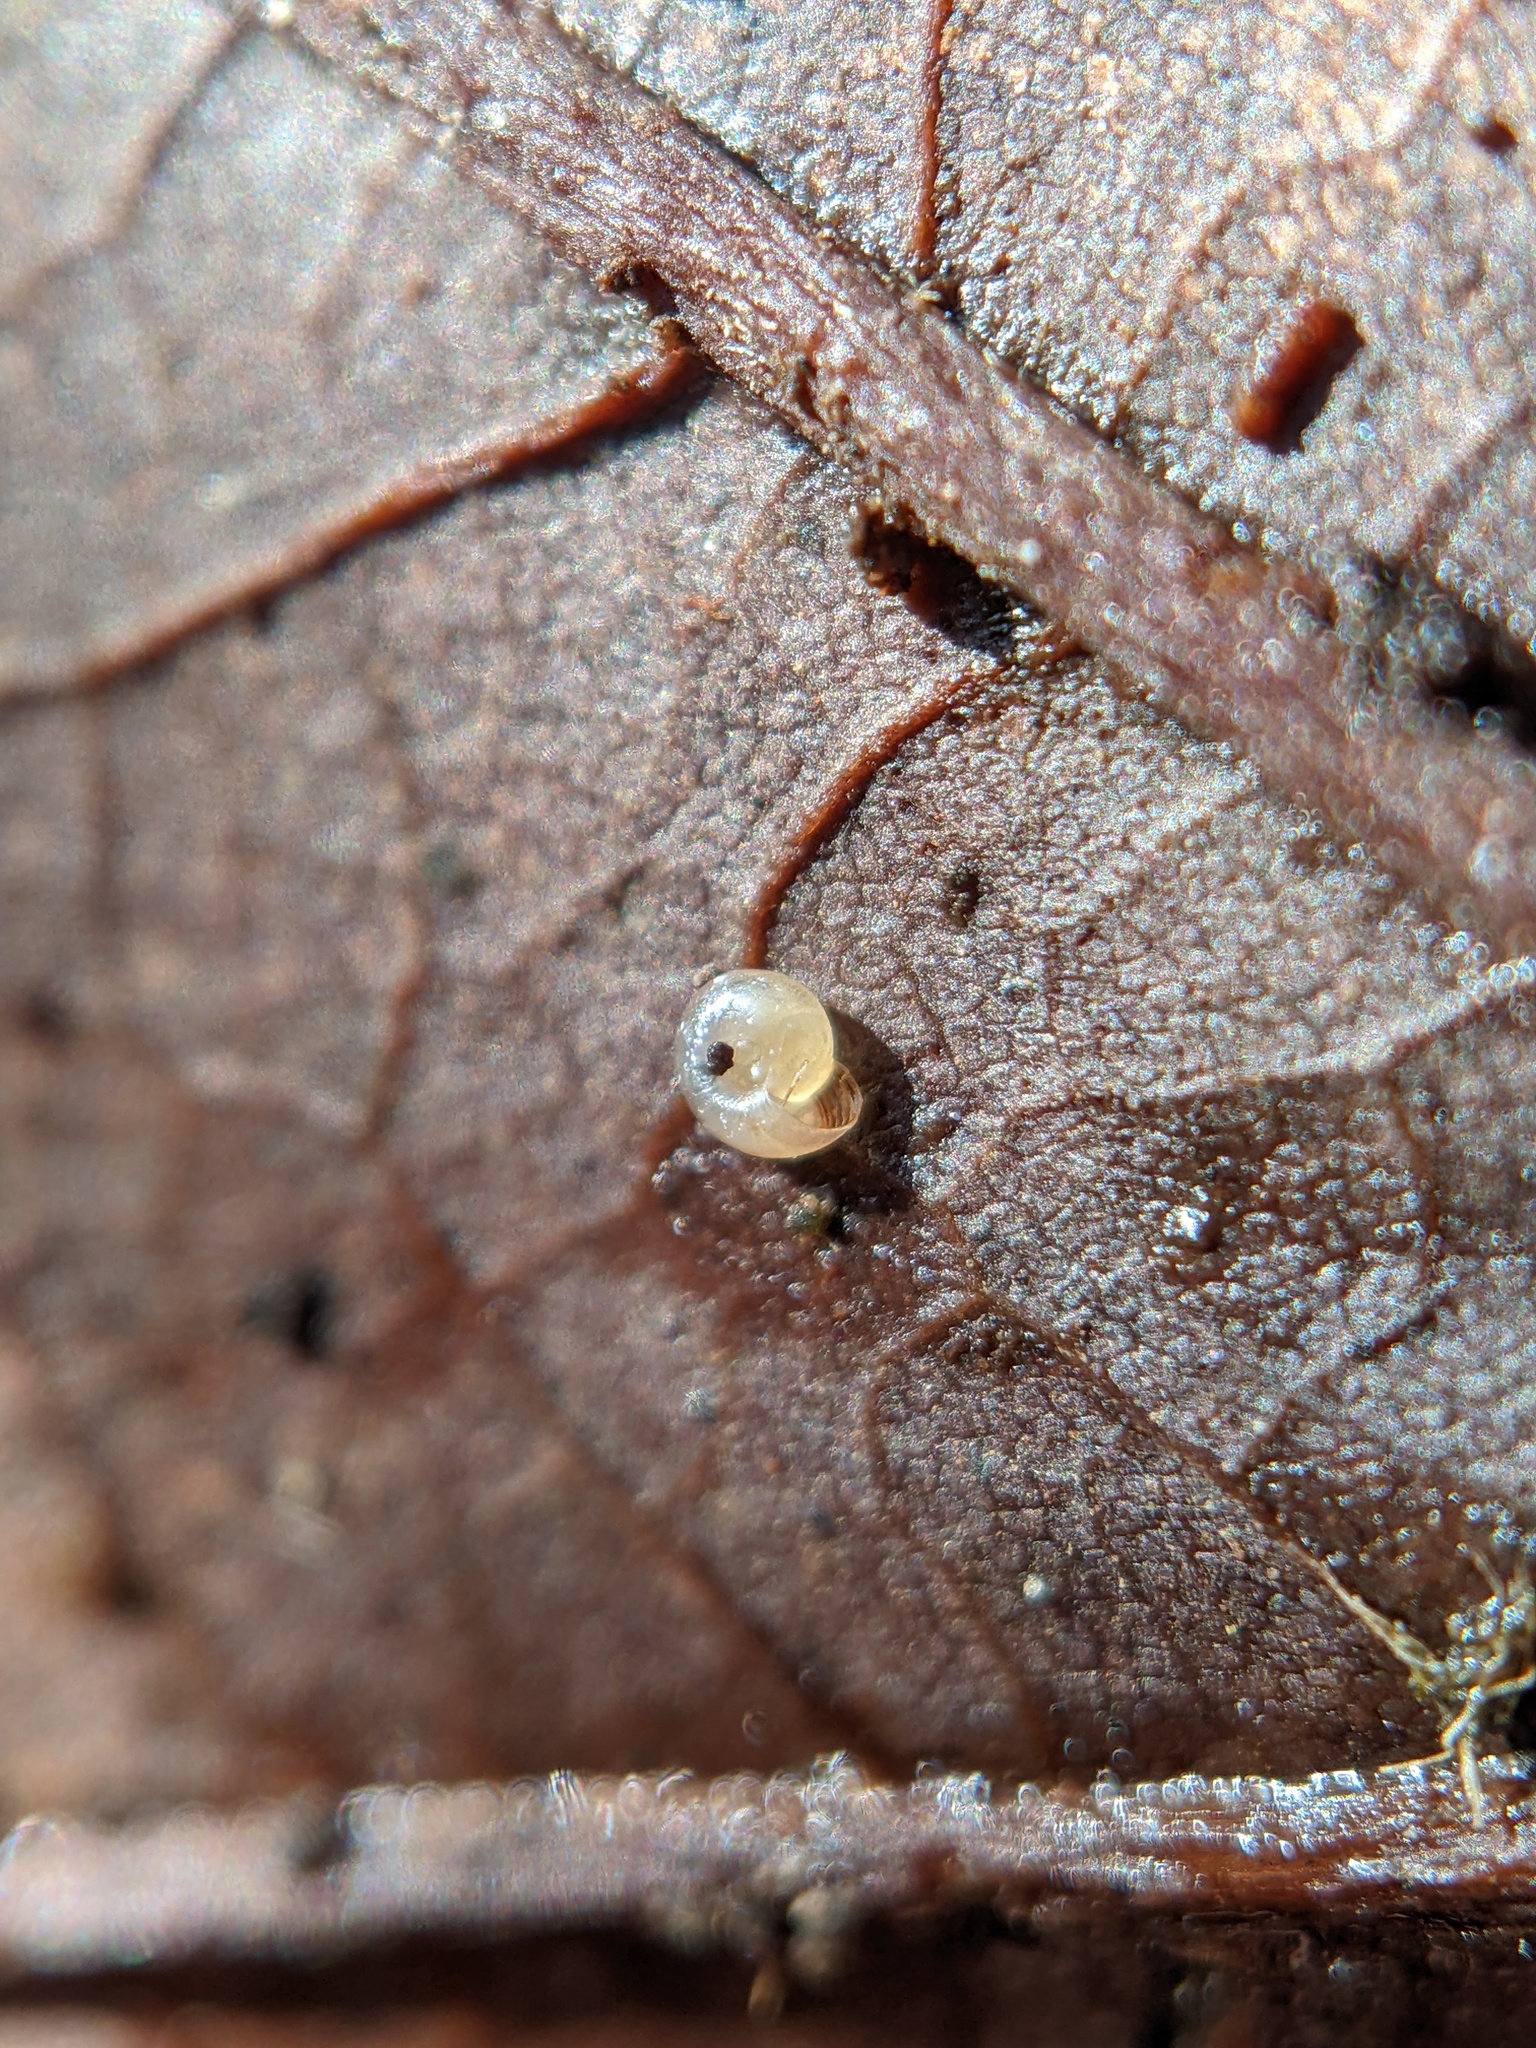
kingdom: Animalia
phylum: Mollusca
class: Gastropoda
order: Stylommatophora
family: Discidae
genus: Discus
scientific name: Discus rotundatus
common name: Rounded snail
